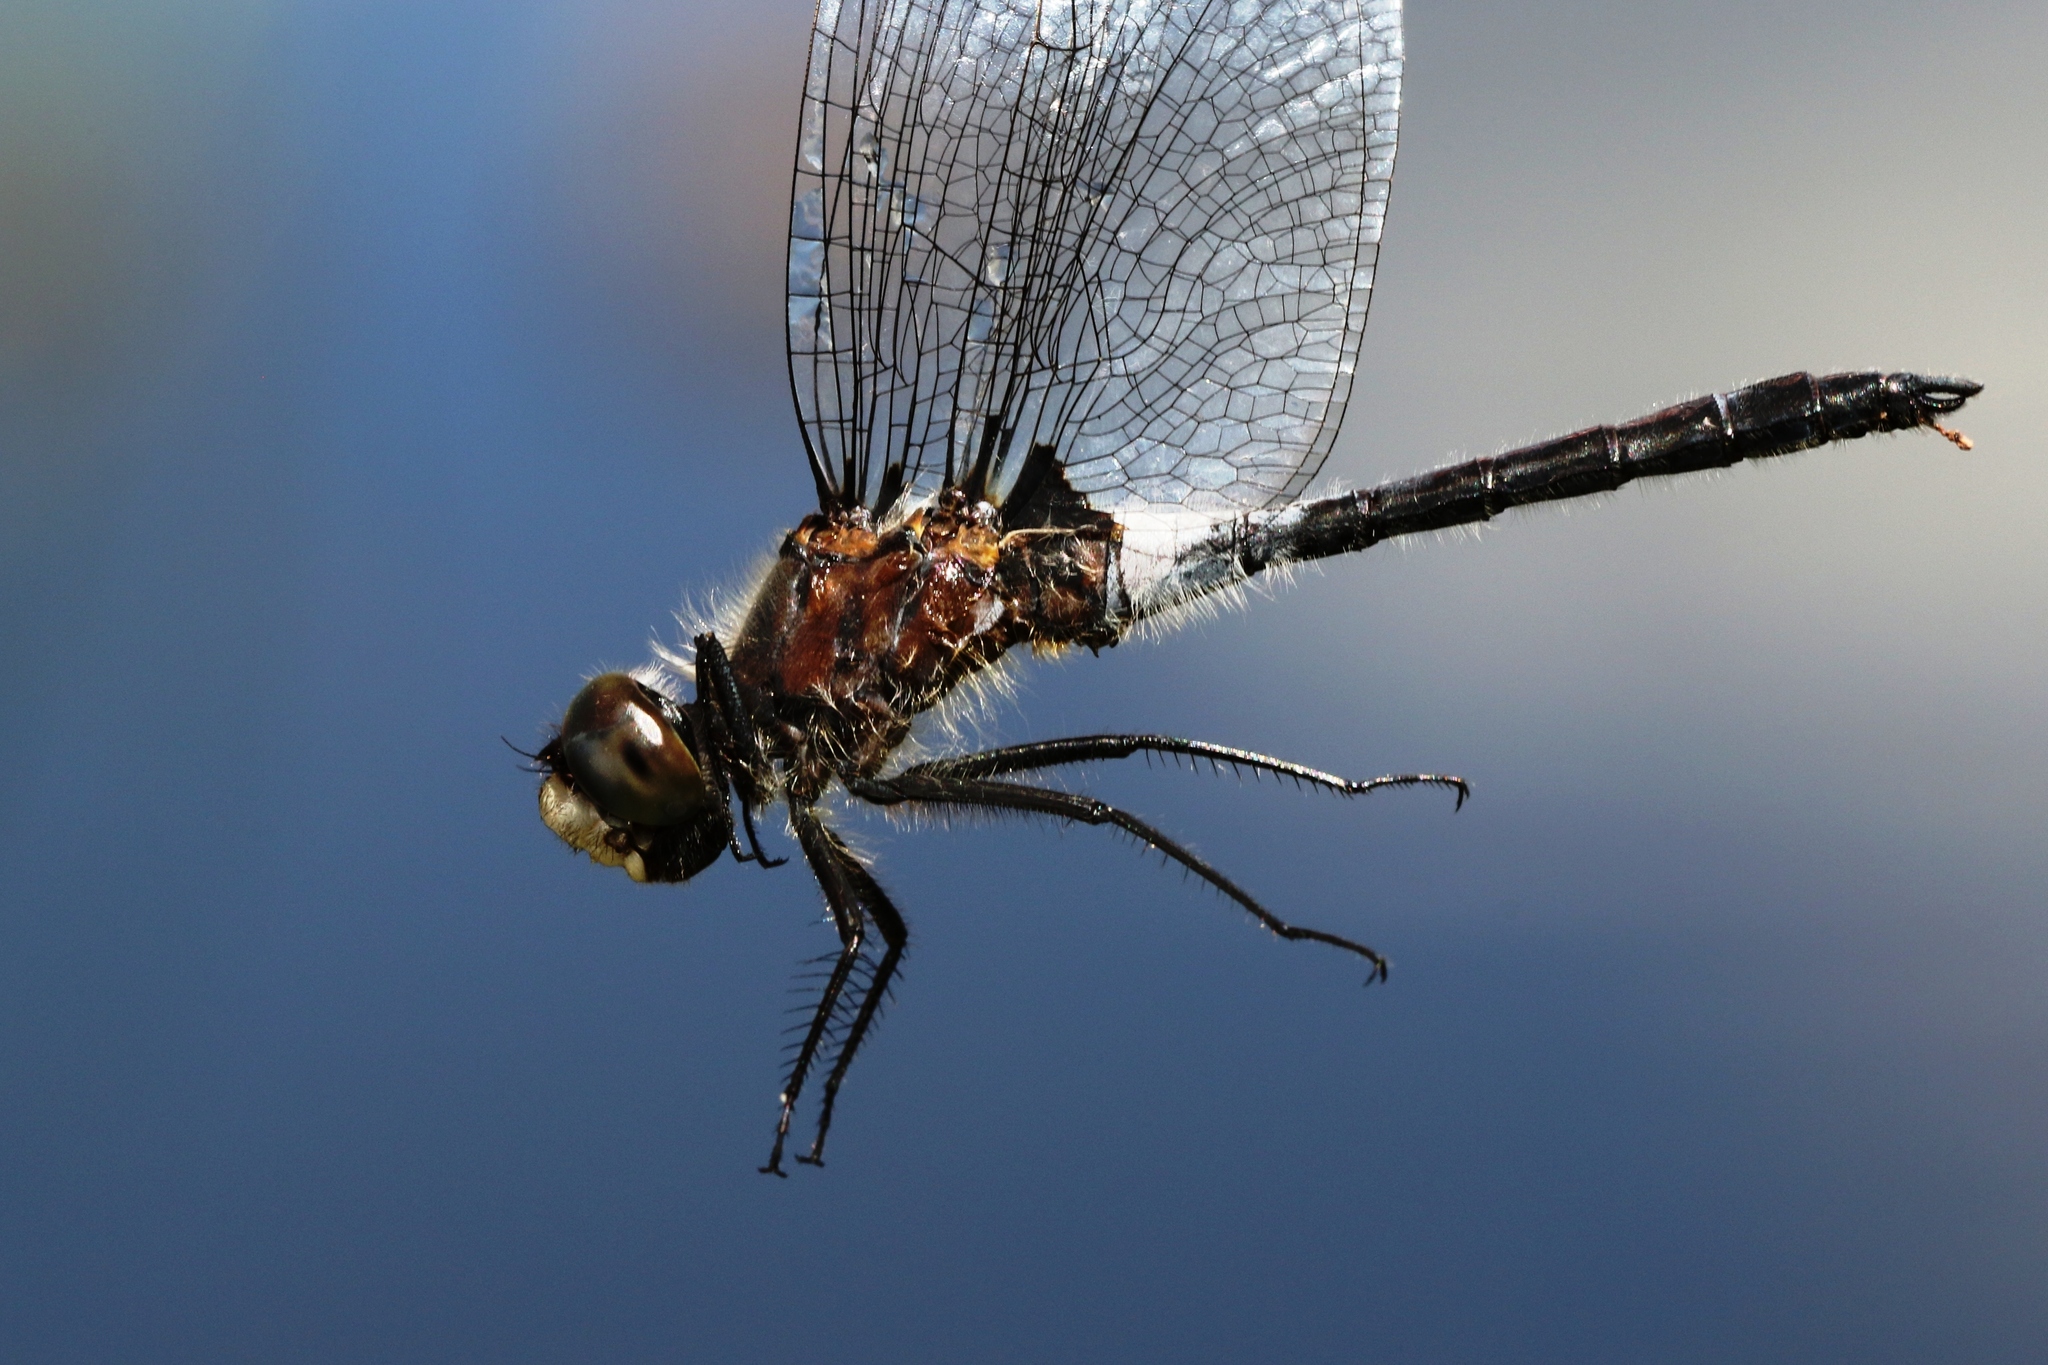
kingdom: Animalia
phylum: Arthropoda
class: Insecta
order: Odonata
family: Libellulidae
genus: Leucorrhinia
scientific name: Leucorrhinia frigida
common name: Frosted whiteface
